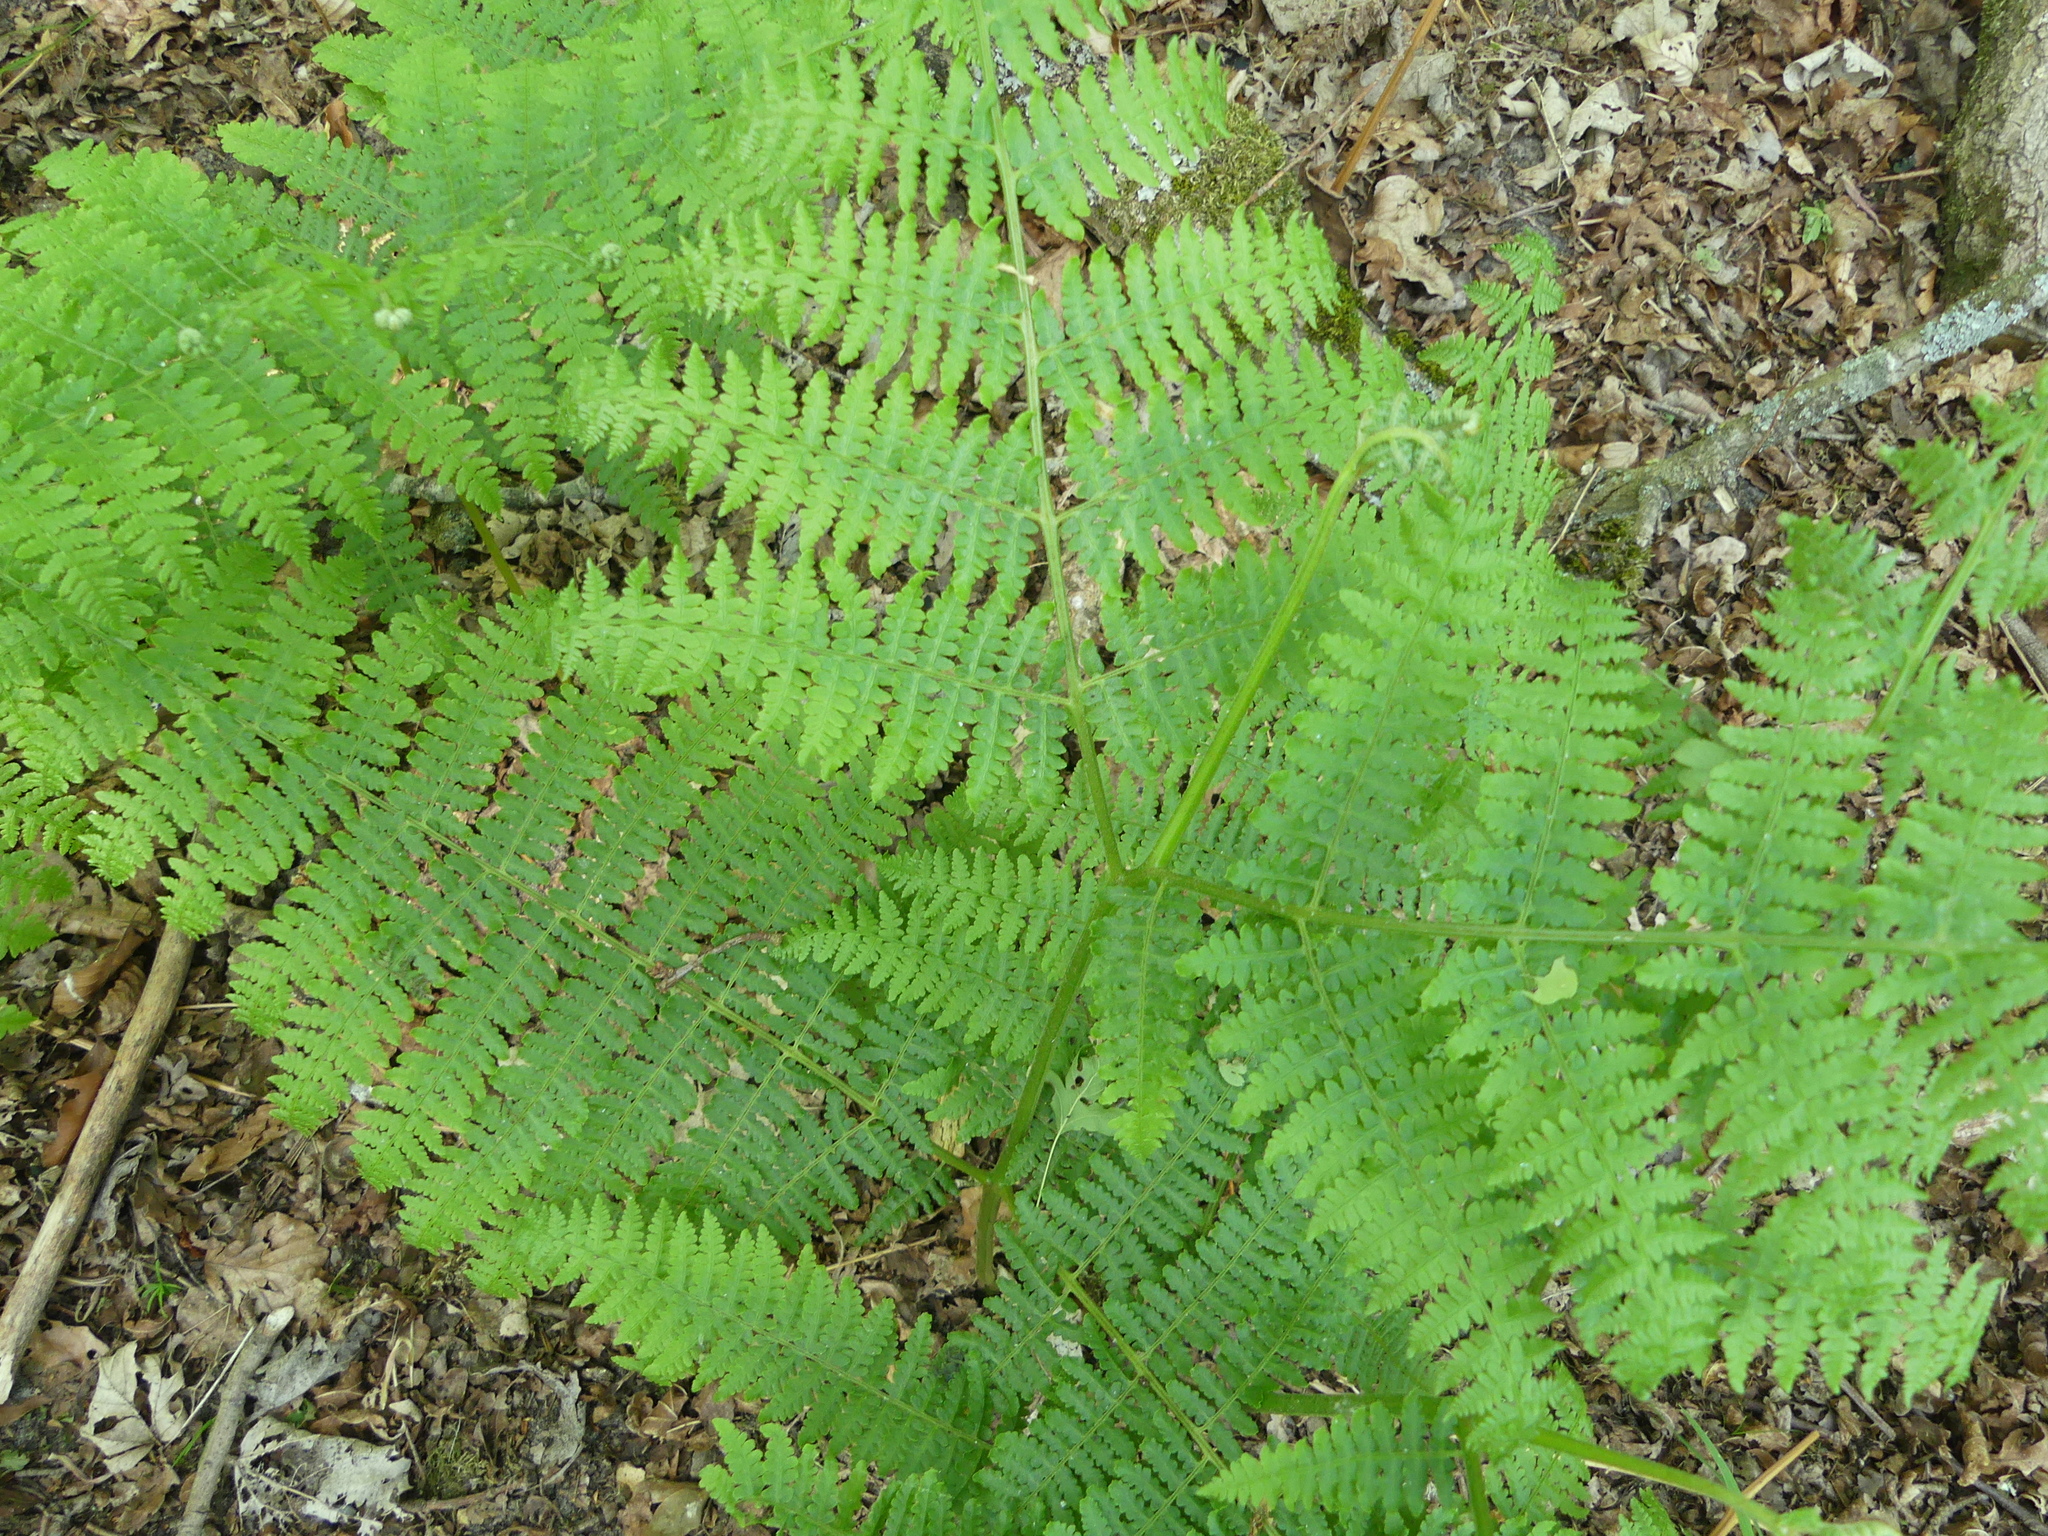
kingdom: Plantae
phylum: Tracheophyta
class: Polypodiopsida
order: Polypodiales
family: Dennstaedtiaceae
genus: Pteridium
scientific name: Pteridium aquilinum
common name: Bracken
